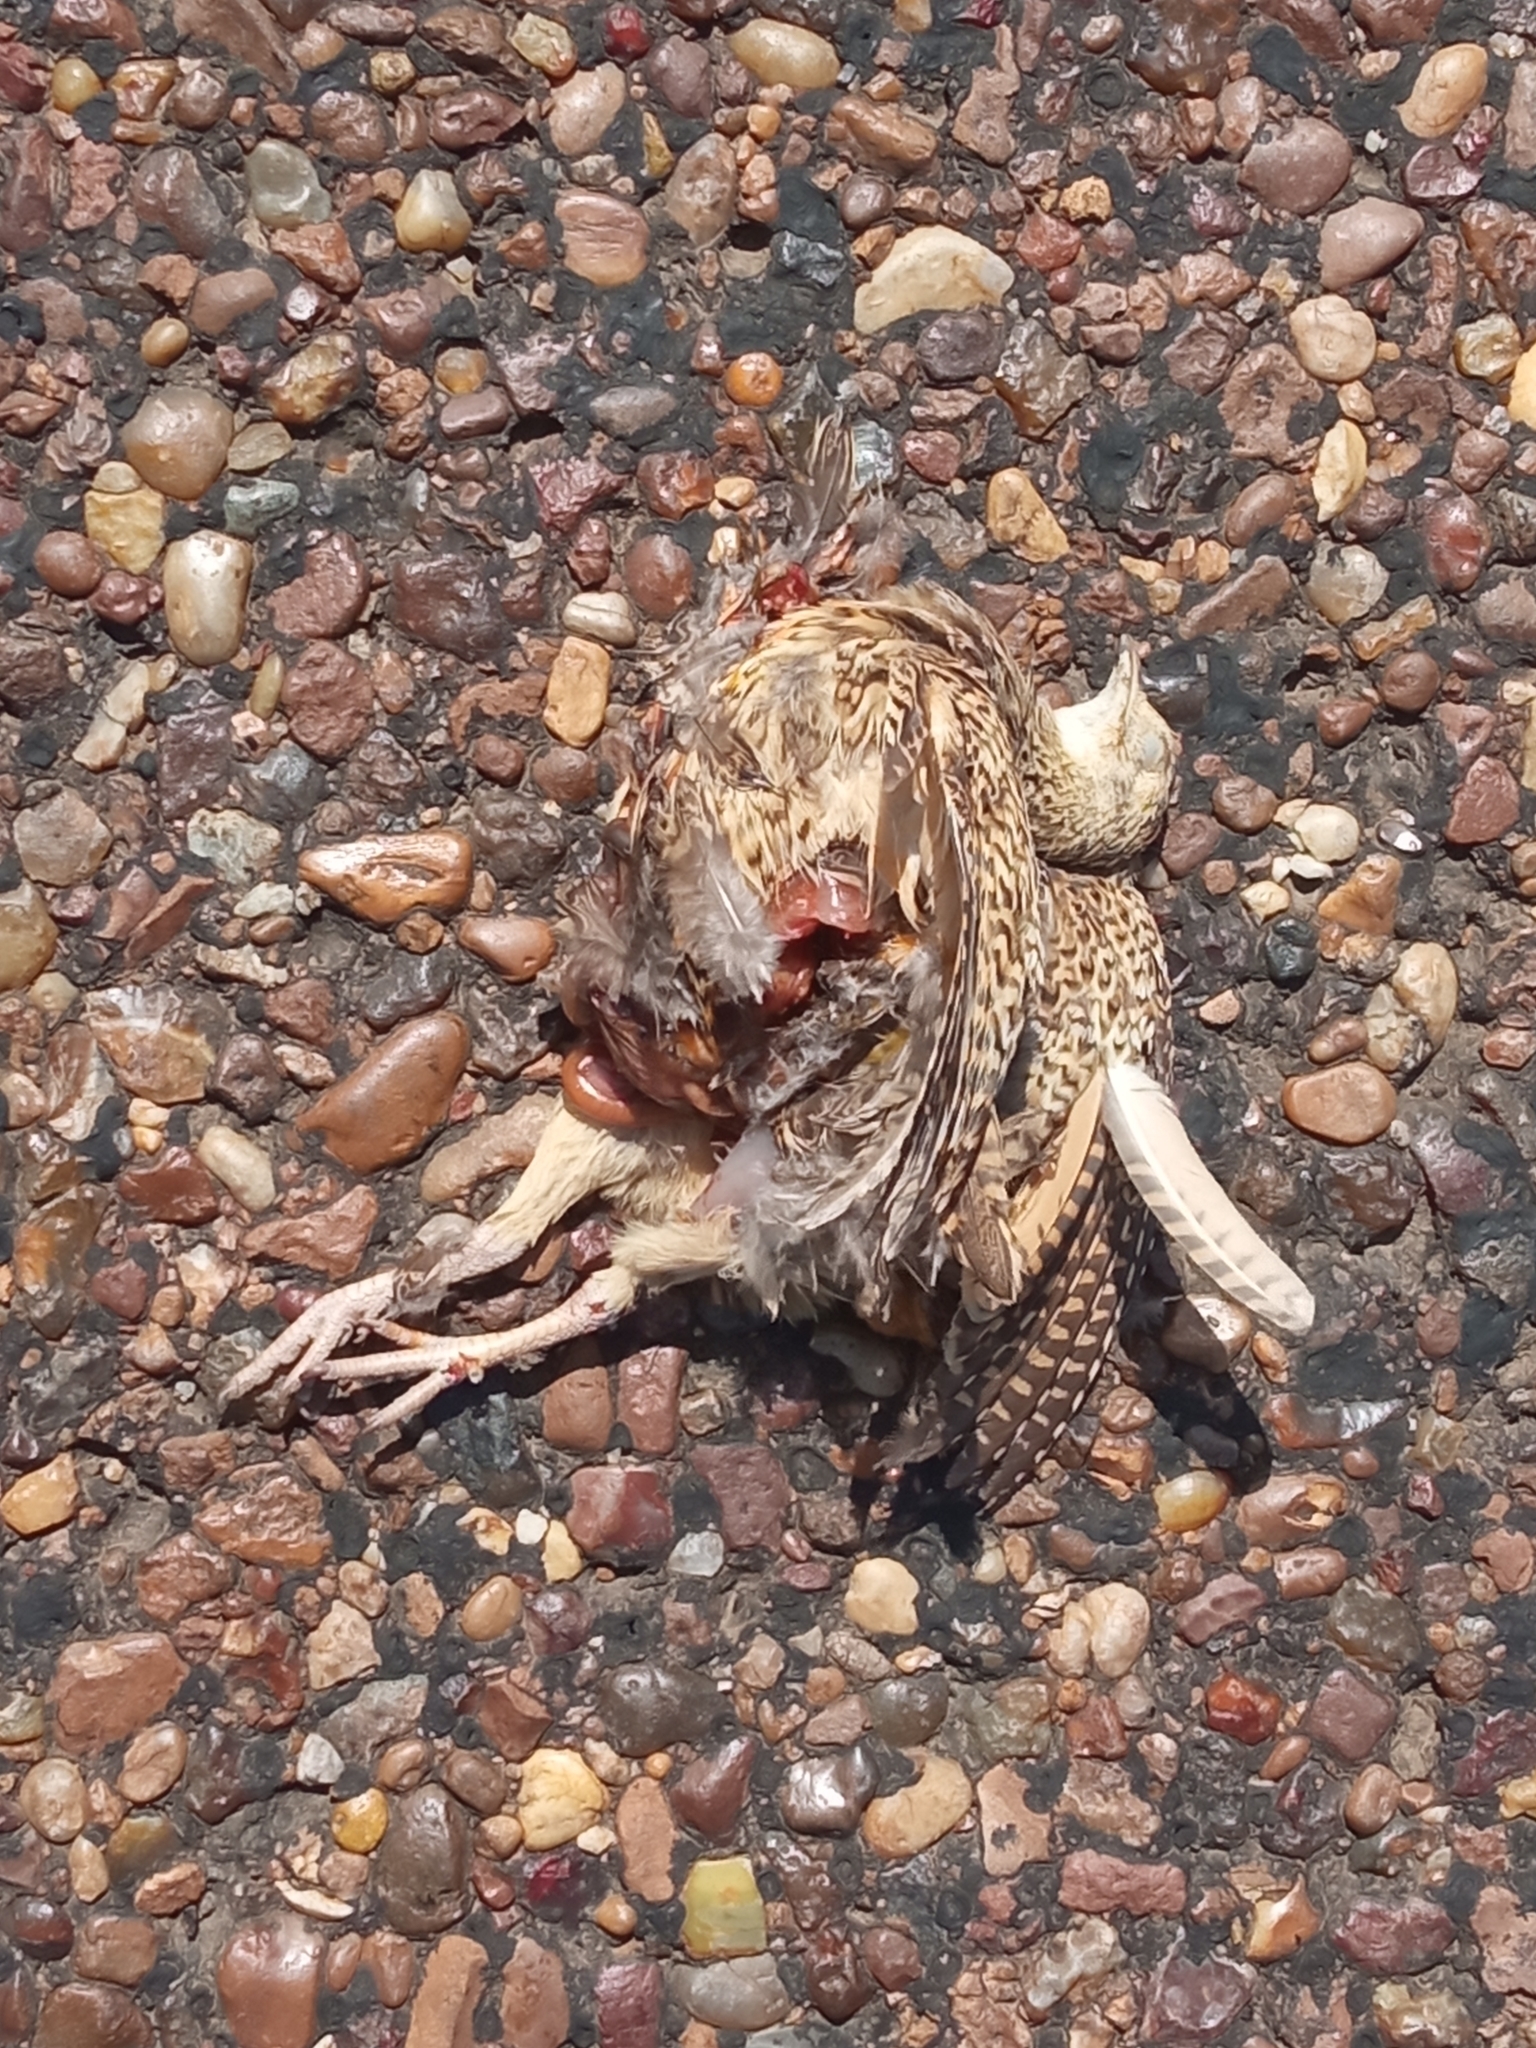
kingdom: Animalia
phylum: Chordata
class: Aves
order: Tinamiformes
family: Tinamidae
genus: Nothura
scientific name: Nothura maculosa
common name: Spotted nothura
